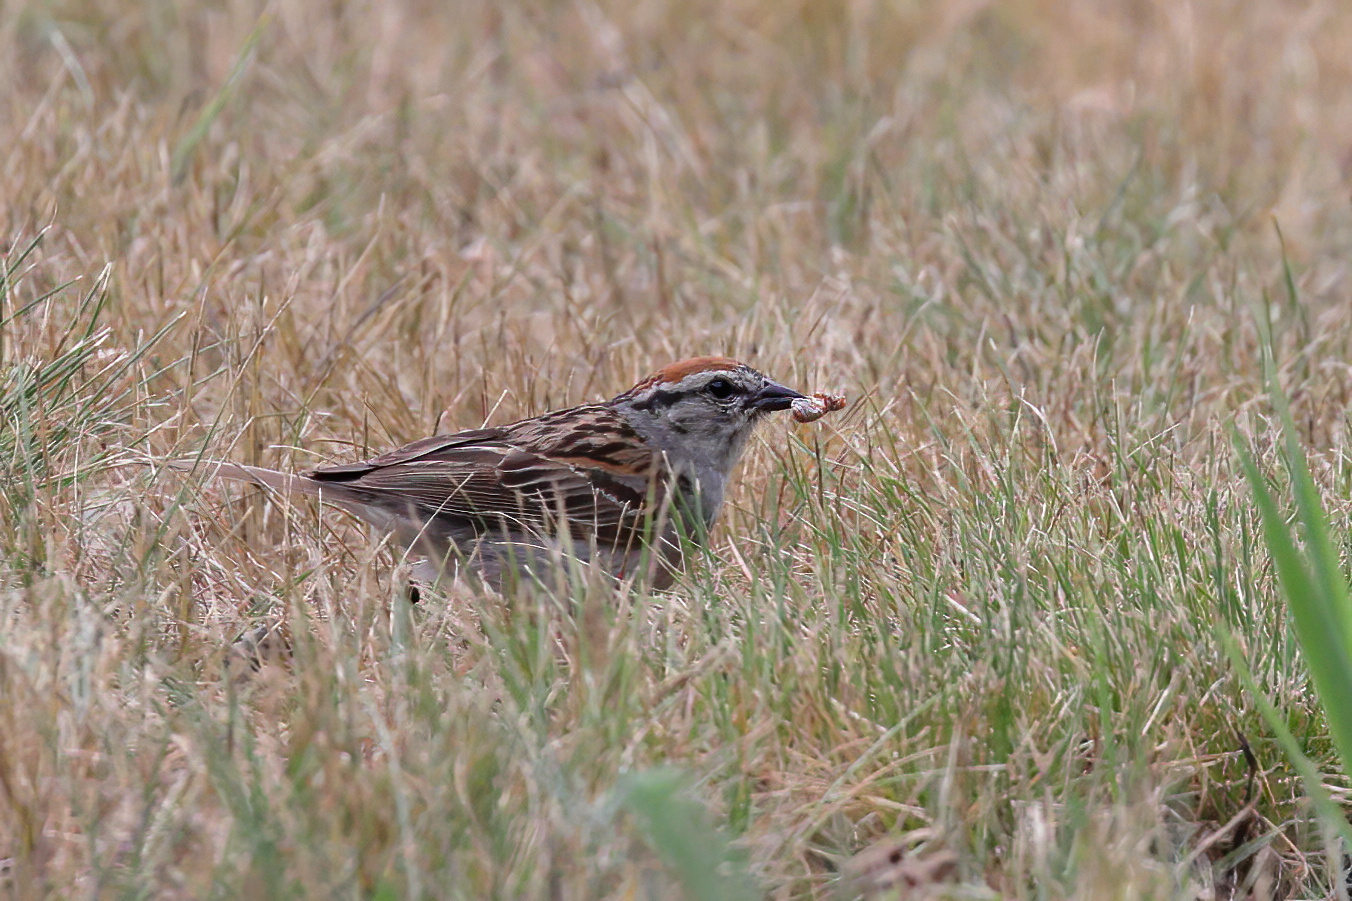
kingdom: Animalia
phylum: Chordata
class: Aves
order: Passeriformes
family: Passerellidae
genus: Spizella
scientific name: Spizella passerina
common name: Chipping sparrow
